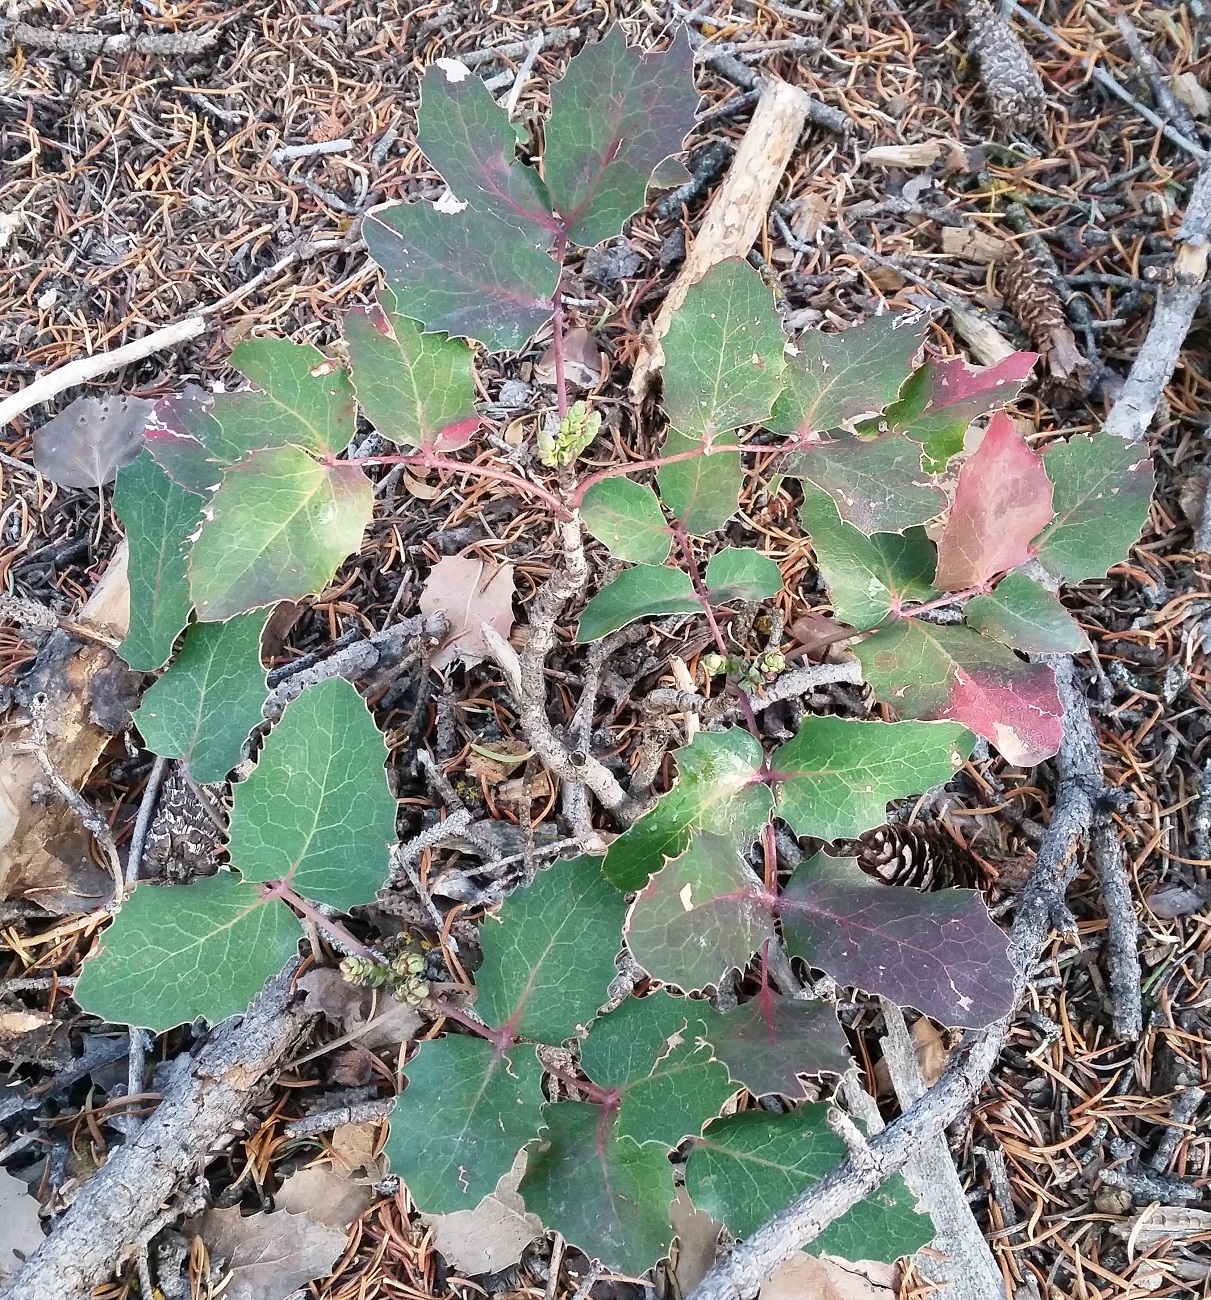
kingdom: Plantae
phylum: Tracheophyta
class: Magnoliopsida
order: Ranunculales
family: Berberidaceae
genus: Mahonia
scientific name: Mahonia repens
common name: Creeping oregon-grape
